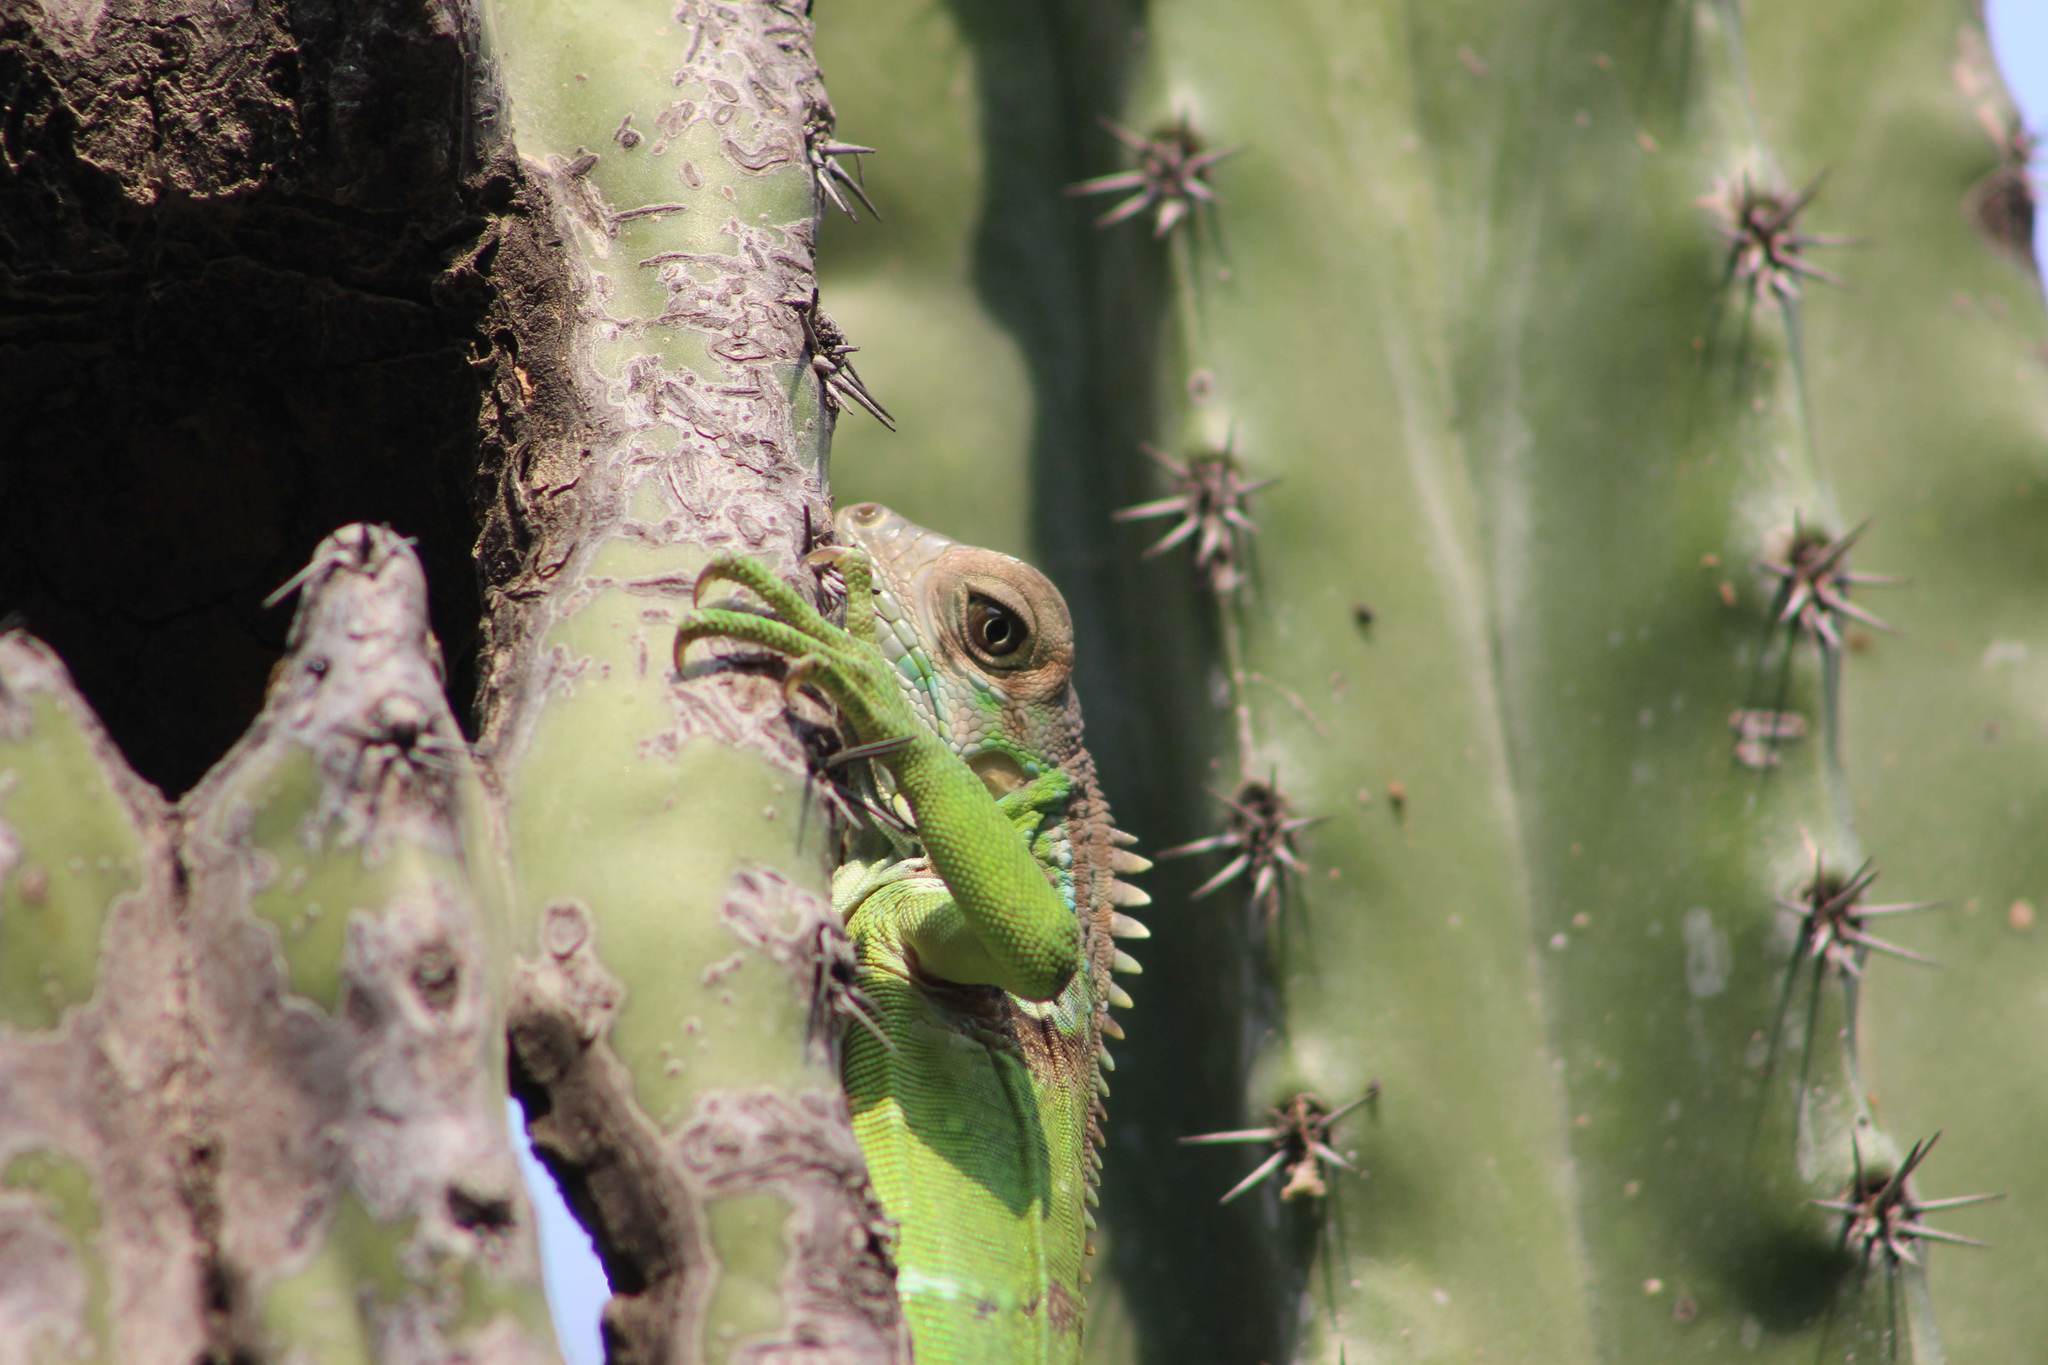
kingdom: Animalia
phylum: Chordata
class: Squamata
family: Iguanidae
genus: Iguana
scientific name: Iguana iguana
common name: Green iguana
